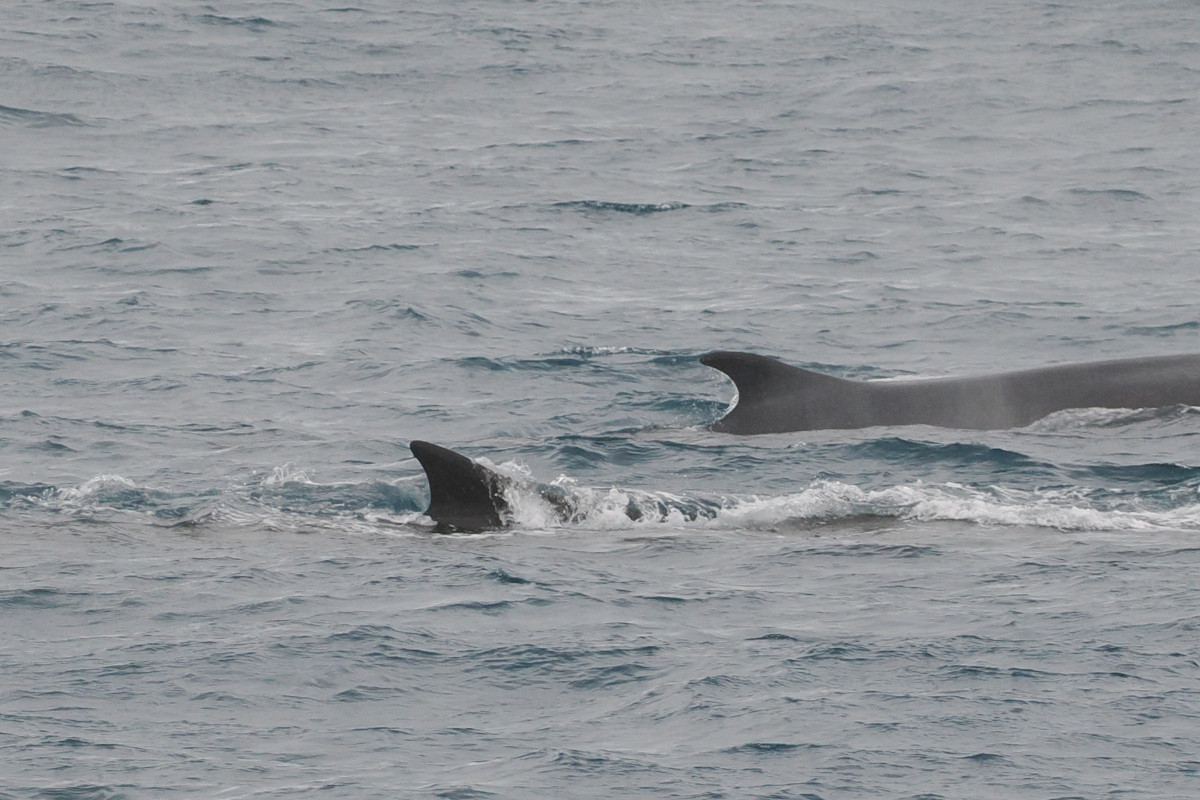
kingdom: Animalia
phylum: Chordata
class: Mammalia
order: Cetacea
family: Balaenopteridae
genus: Balaenoptera
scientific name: Balaenoptera physalus
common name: Fin whale
